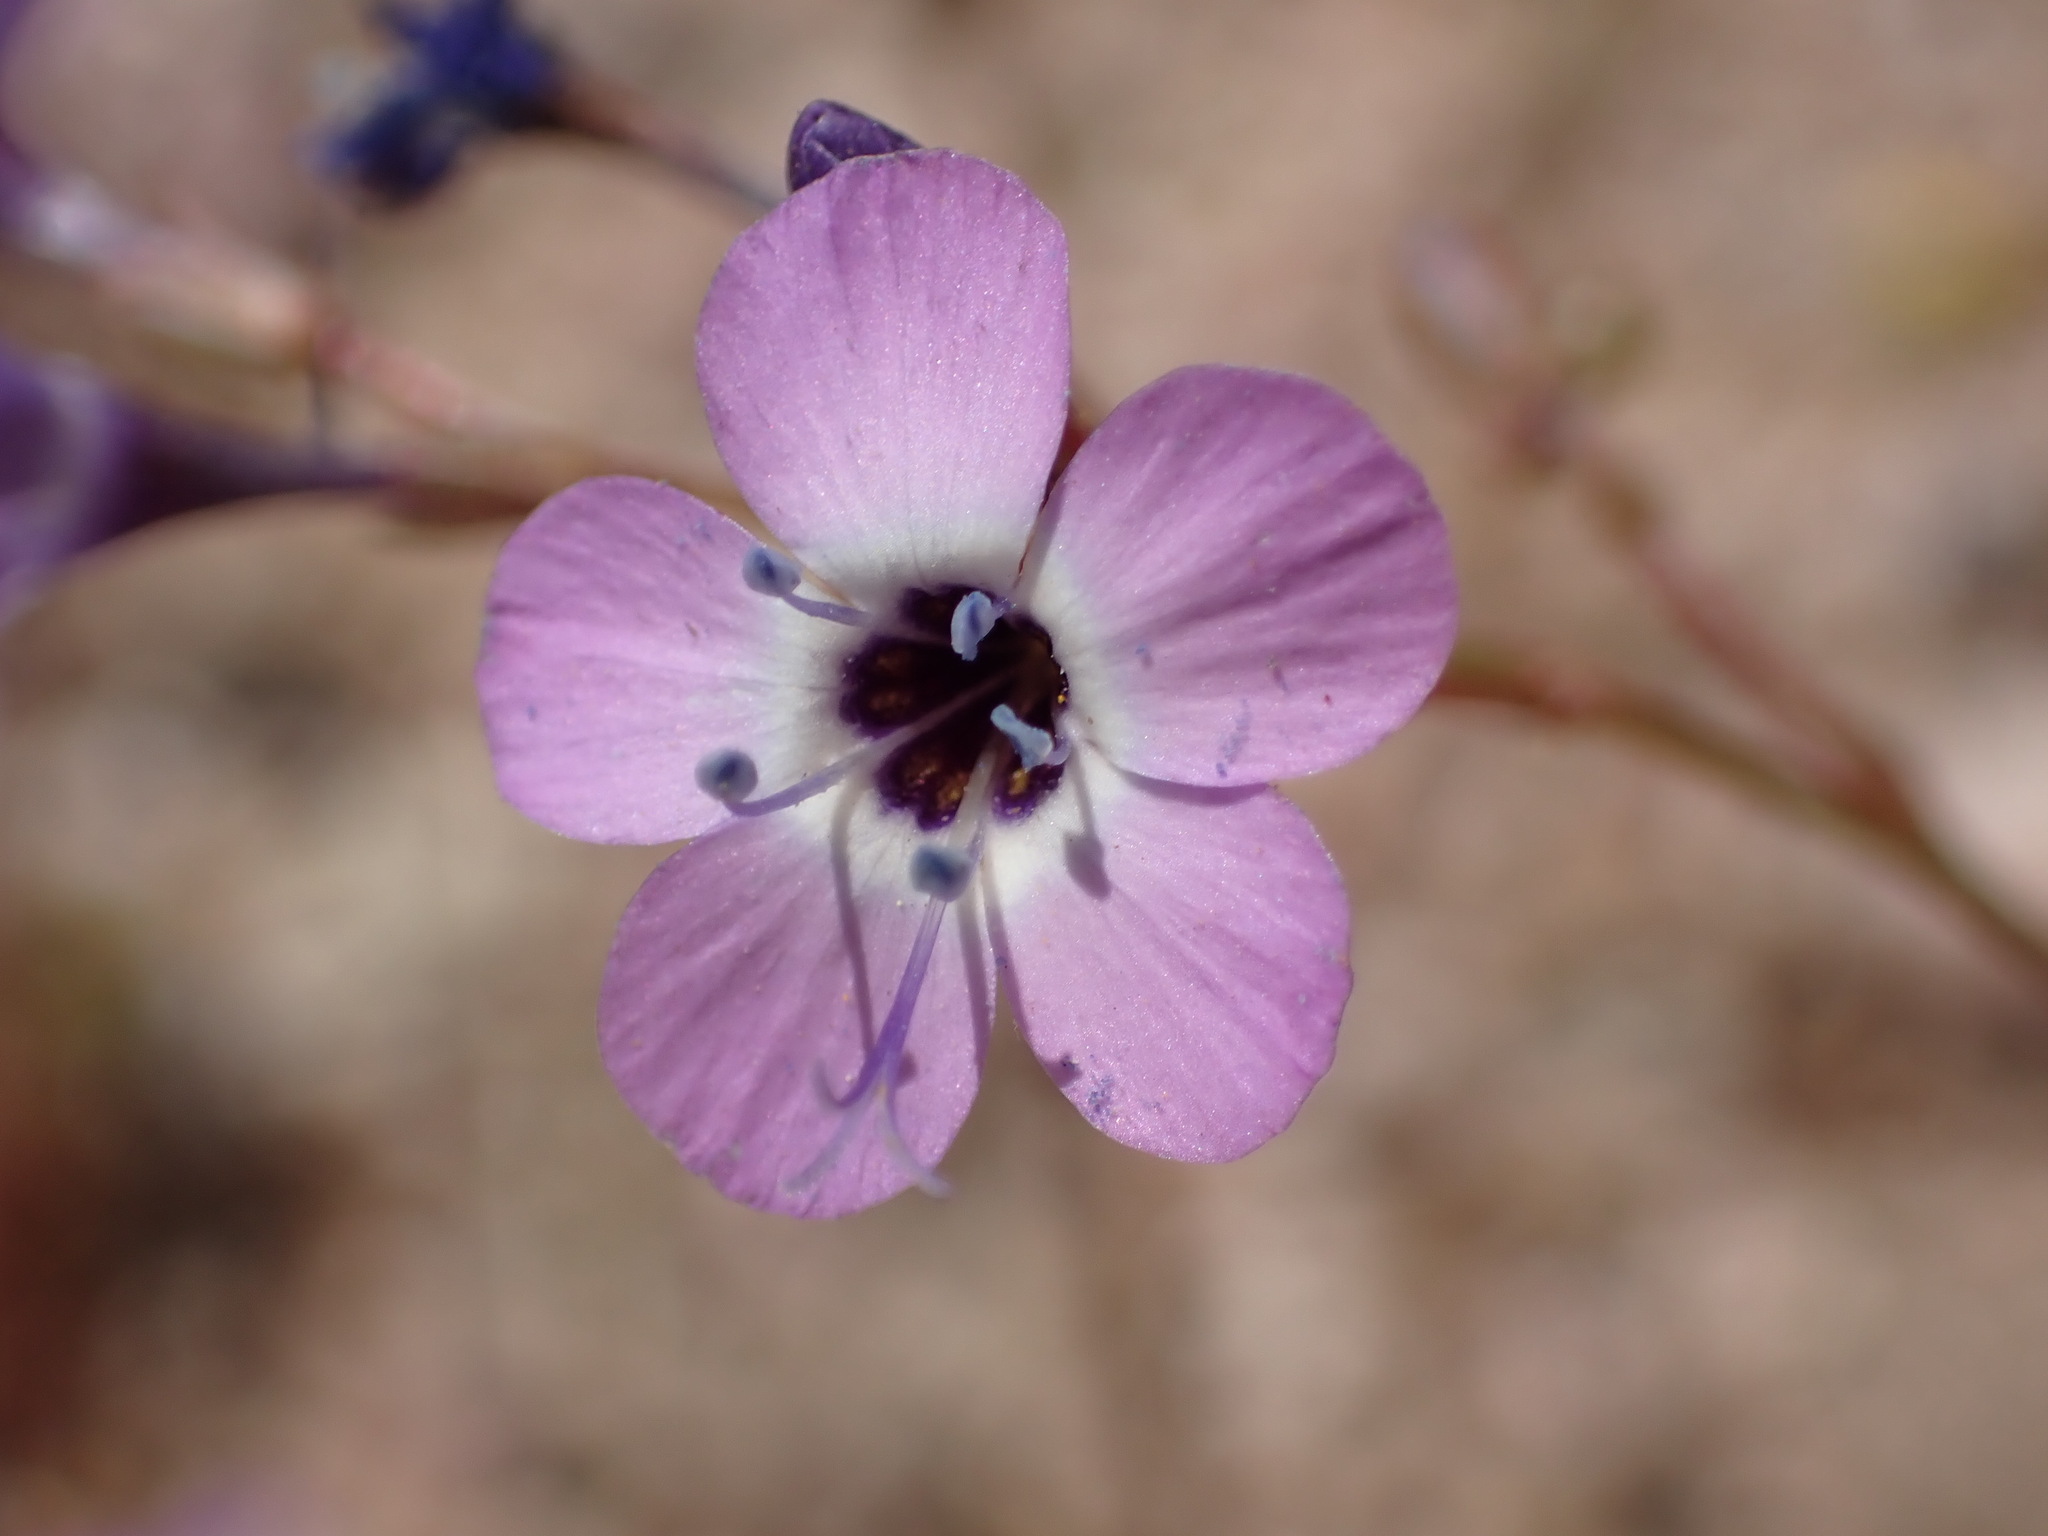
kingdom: Plantae
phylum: Tracheophyta
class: Magnoliopsida
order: Ericales
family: Polemoniaceae
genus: Gilia
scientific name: Gilia tenuiflora
